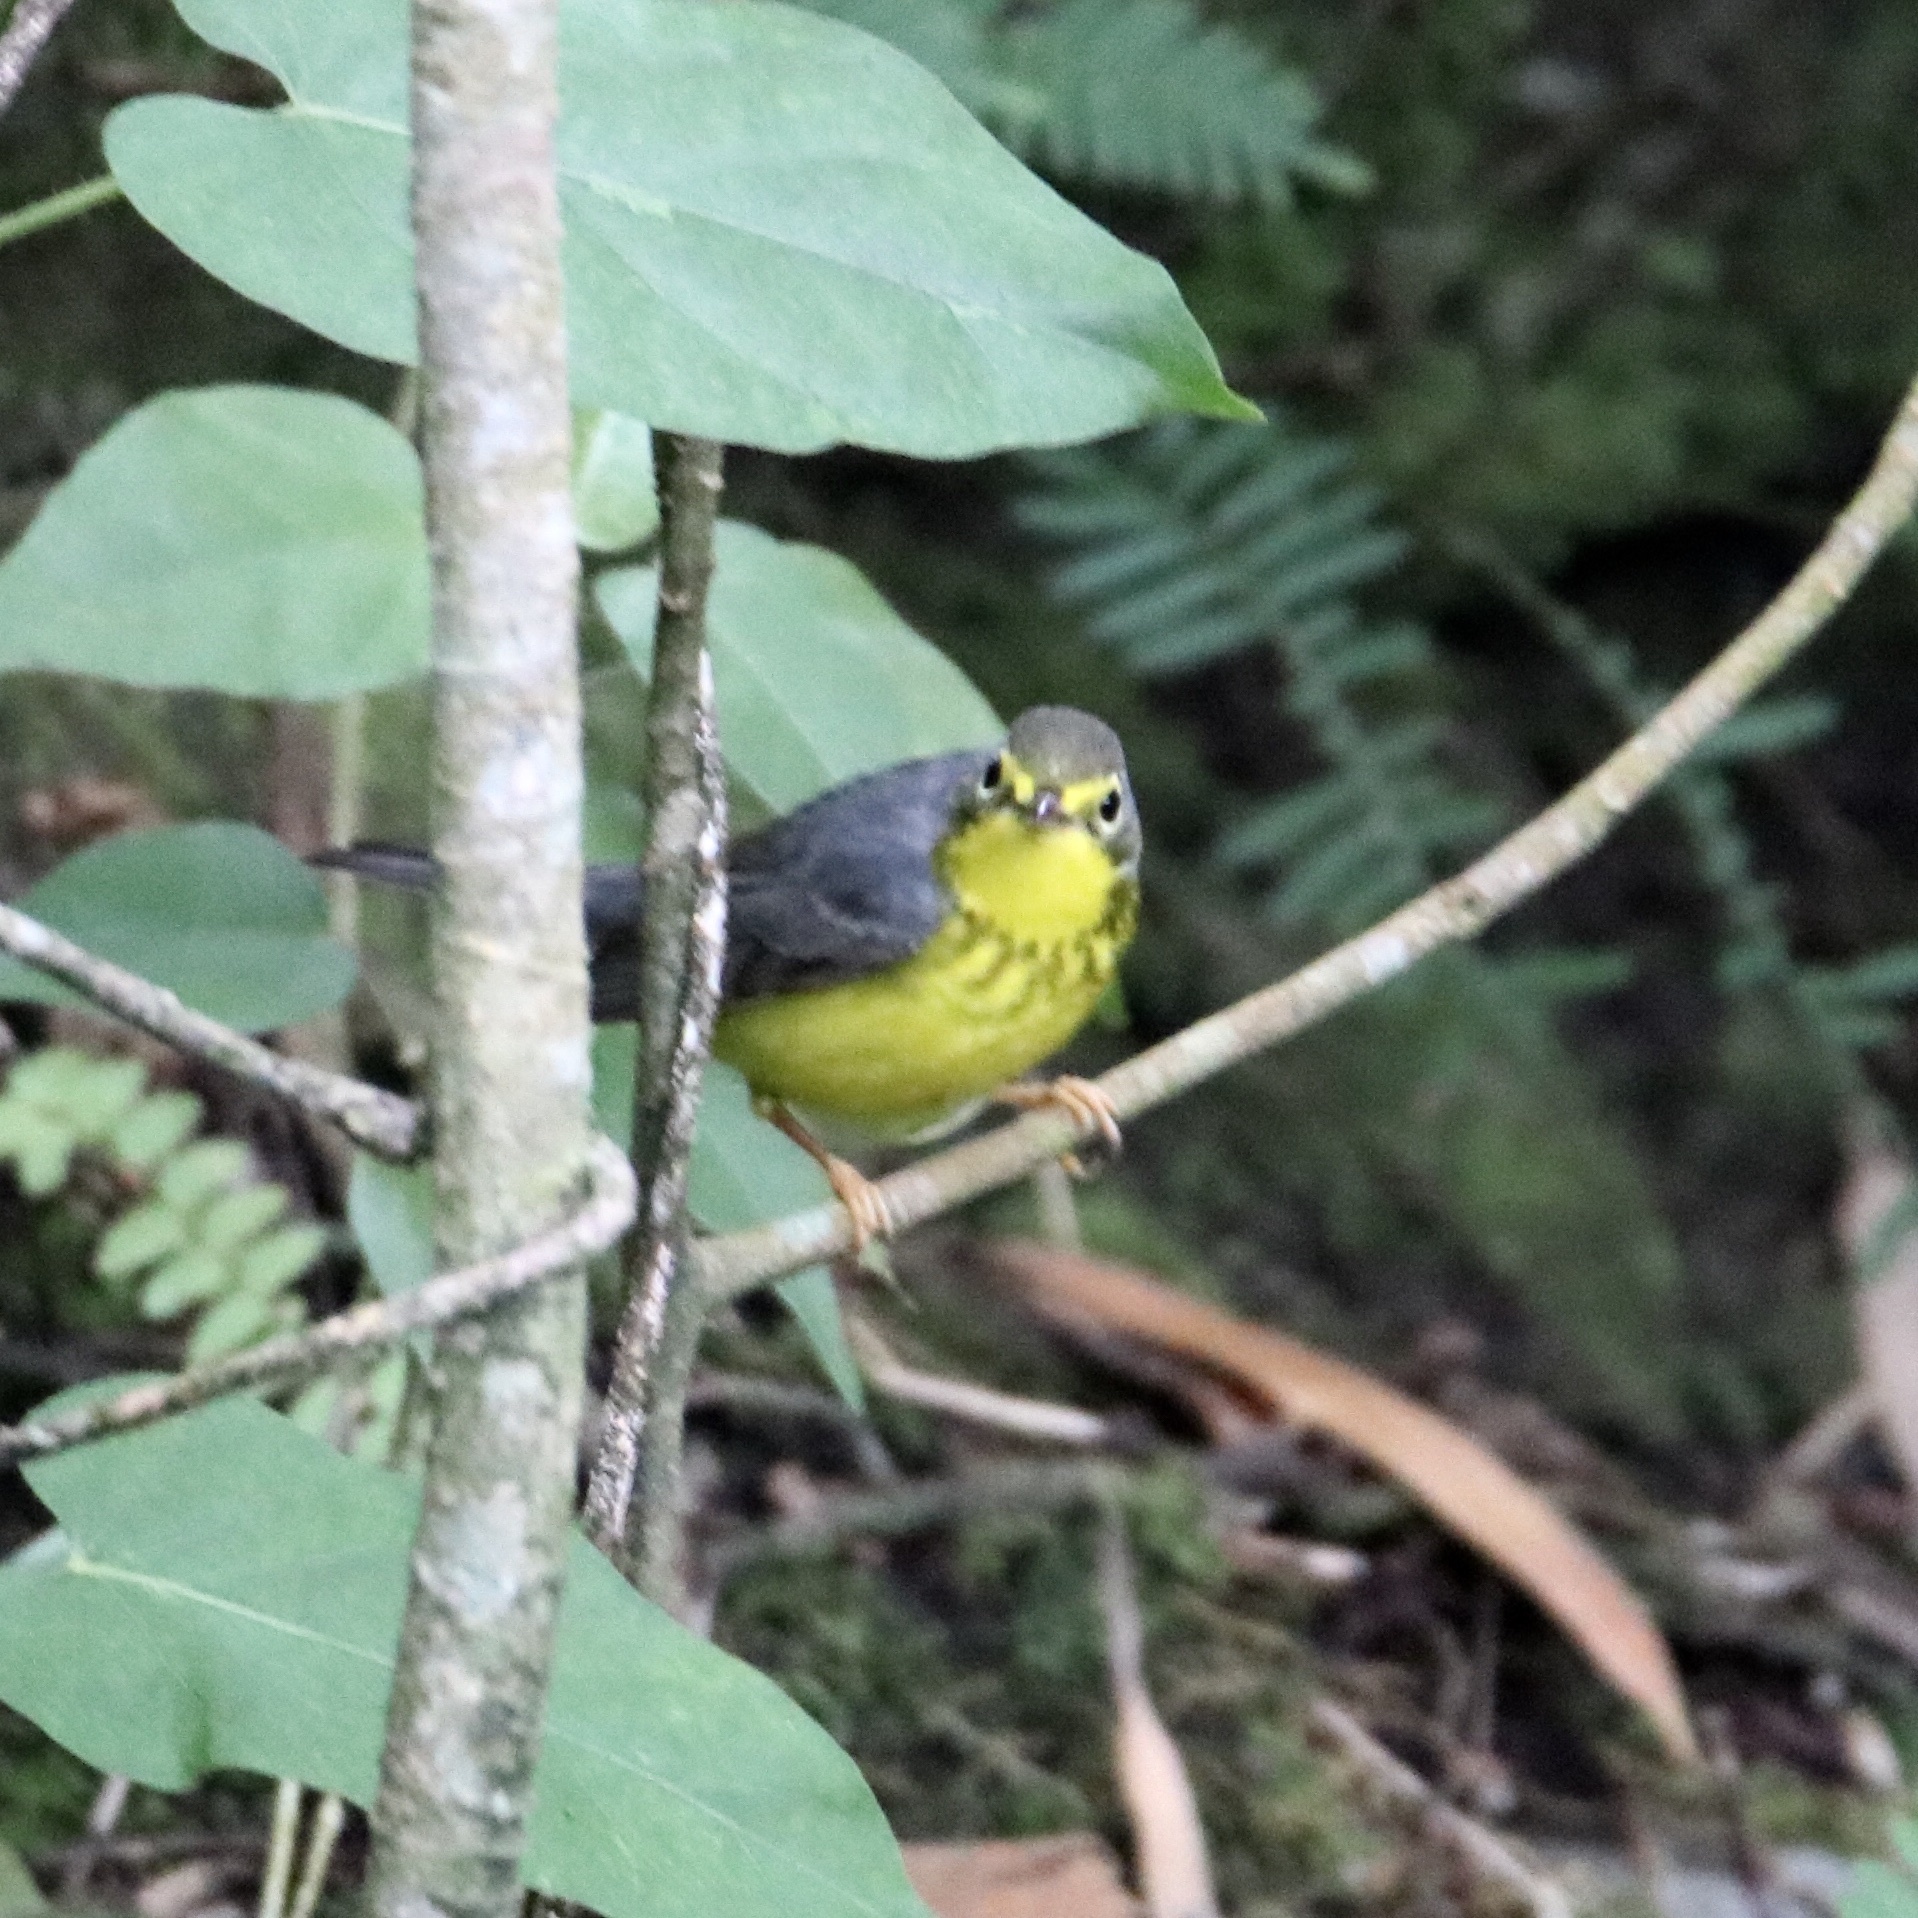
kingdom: Animalia
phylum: Chordata
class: Aves
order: Passeriformes
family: Parulidae
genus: Cardellina
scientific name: Cardellina canadensis
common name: Canada warbler
